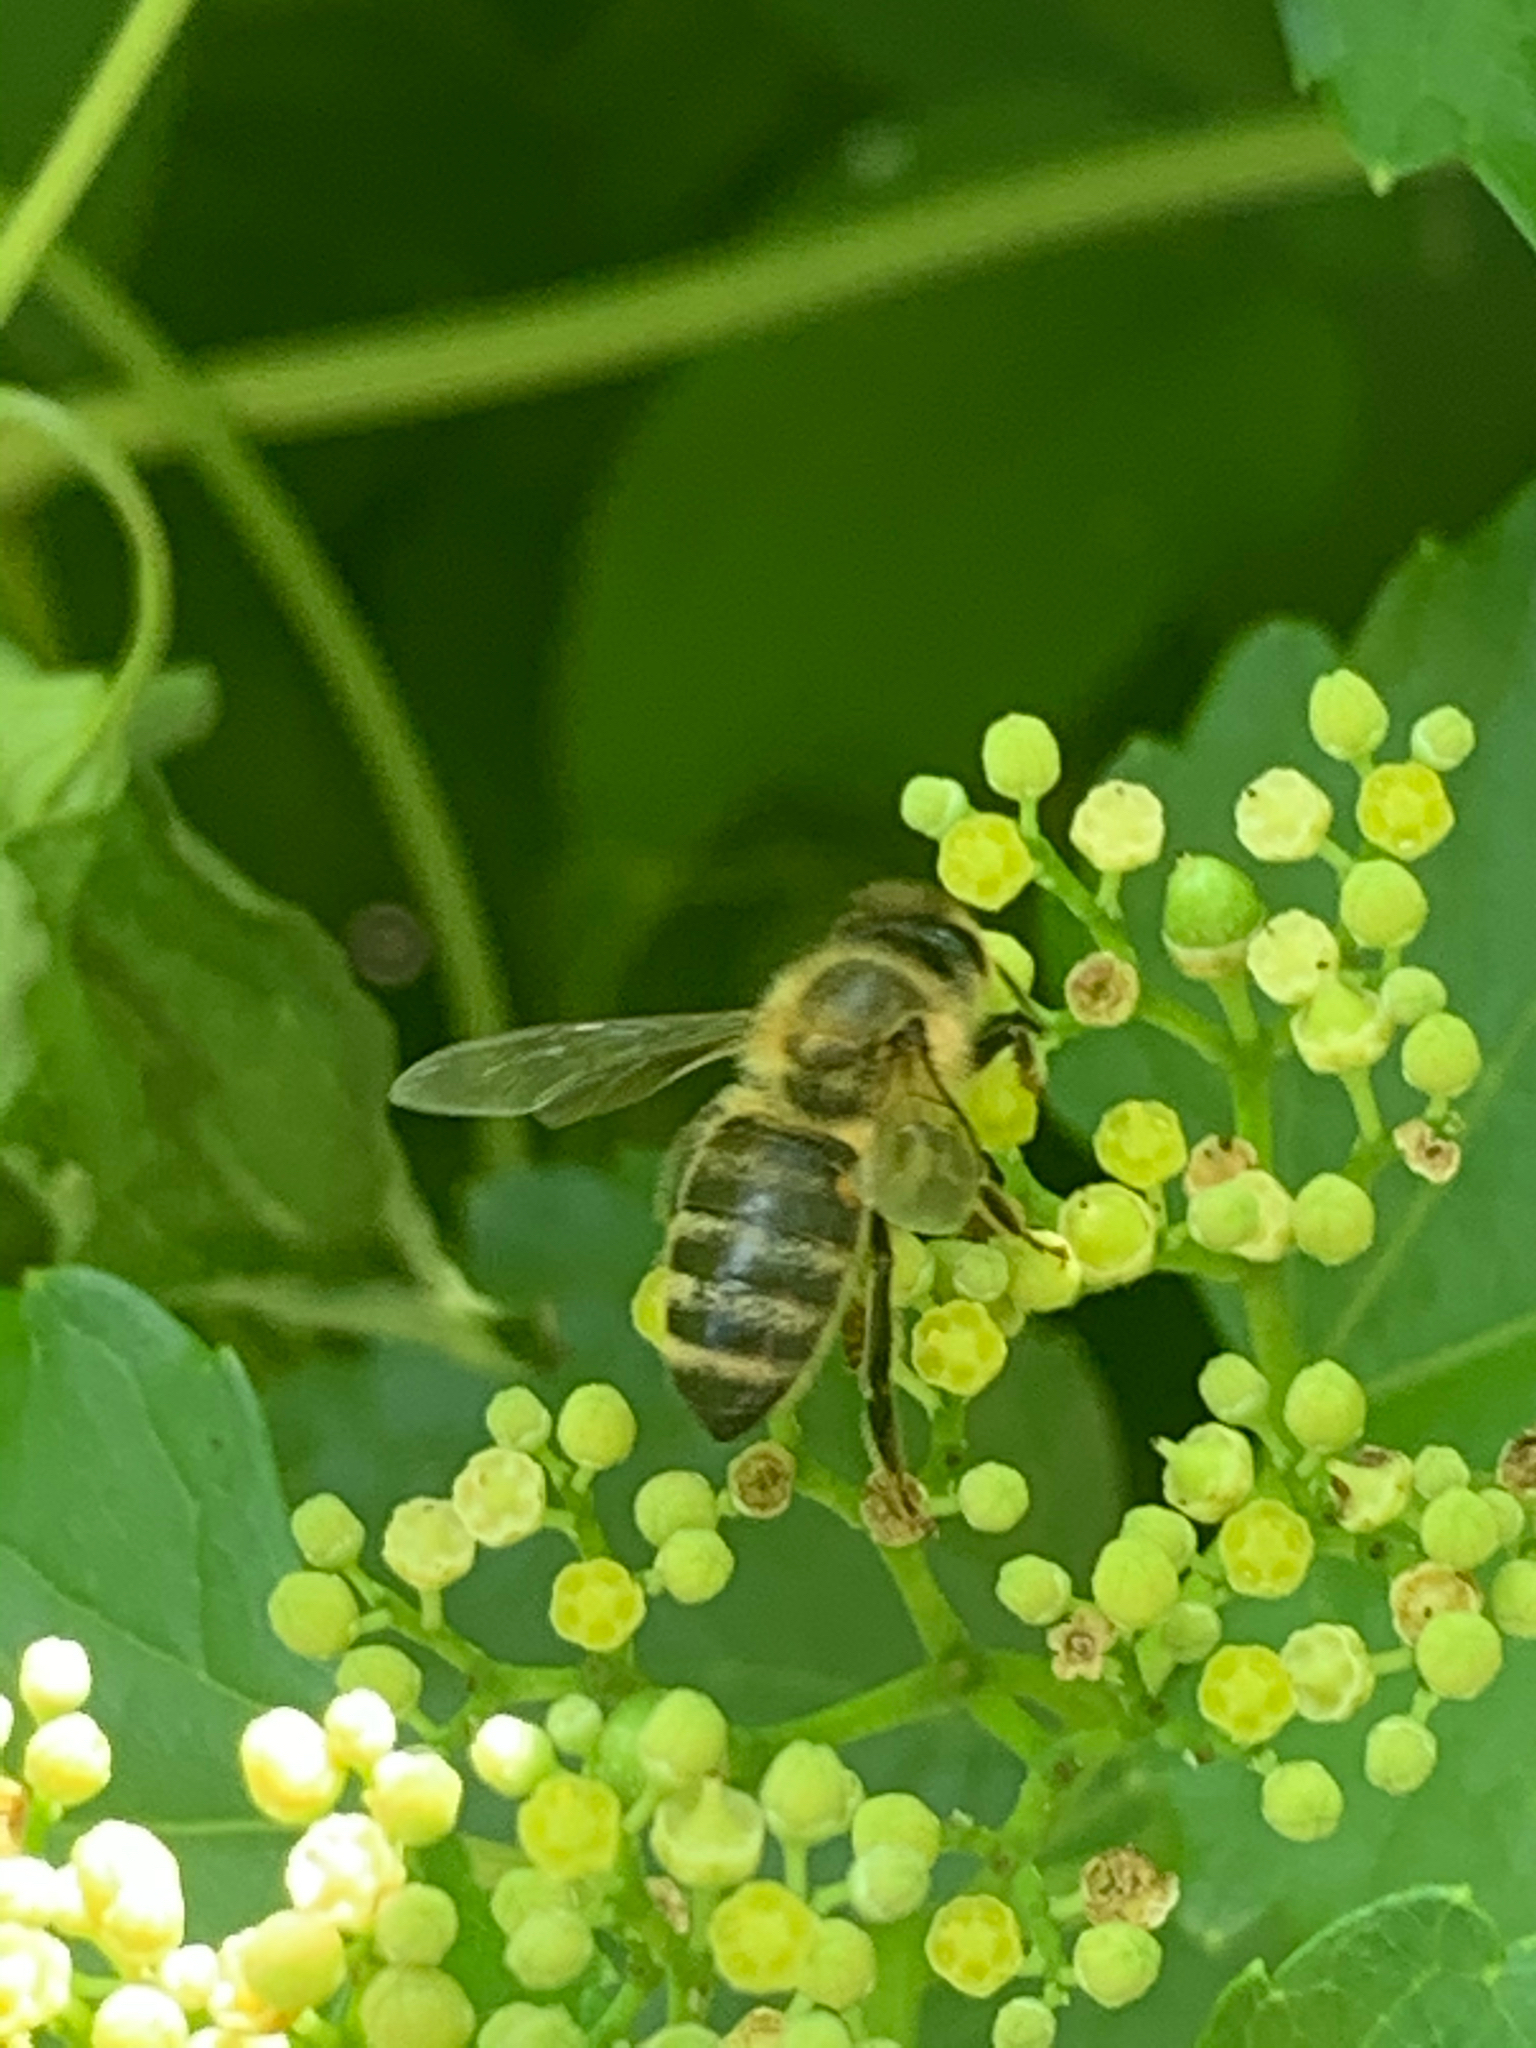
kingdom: Animalia
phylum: Arthropoda
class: Insecta
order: Hymenoptera
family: Apidae
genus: Apis
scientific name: Apis mellifera
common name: Honey bee
